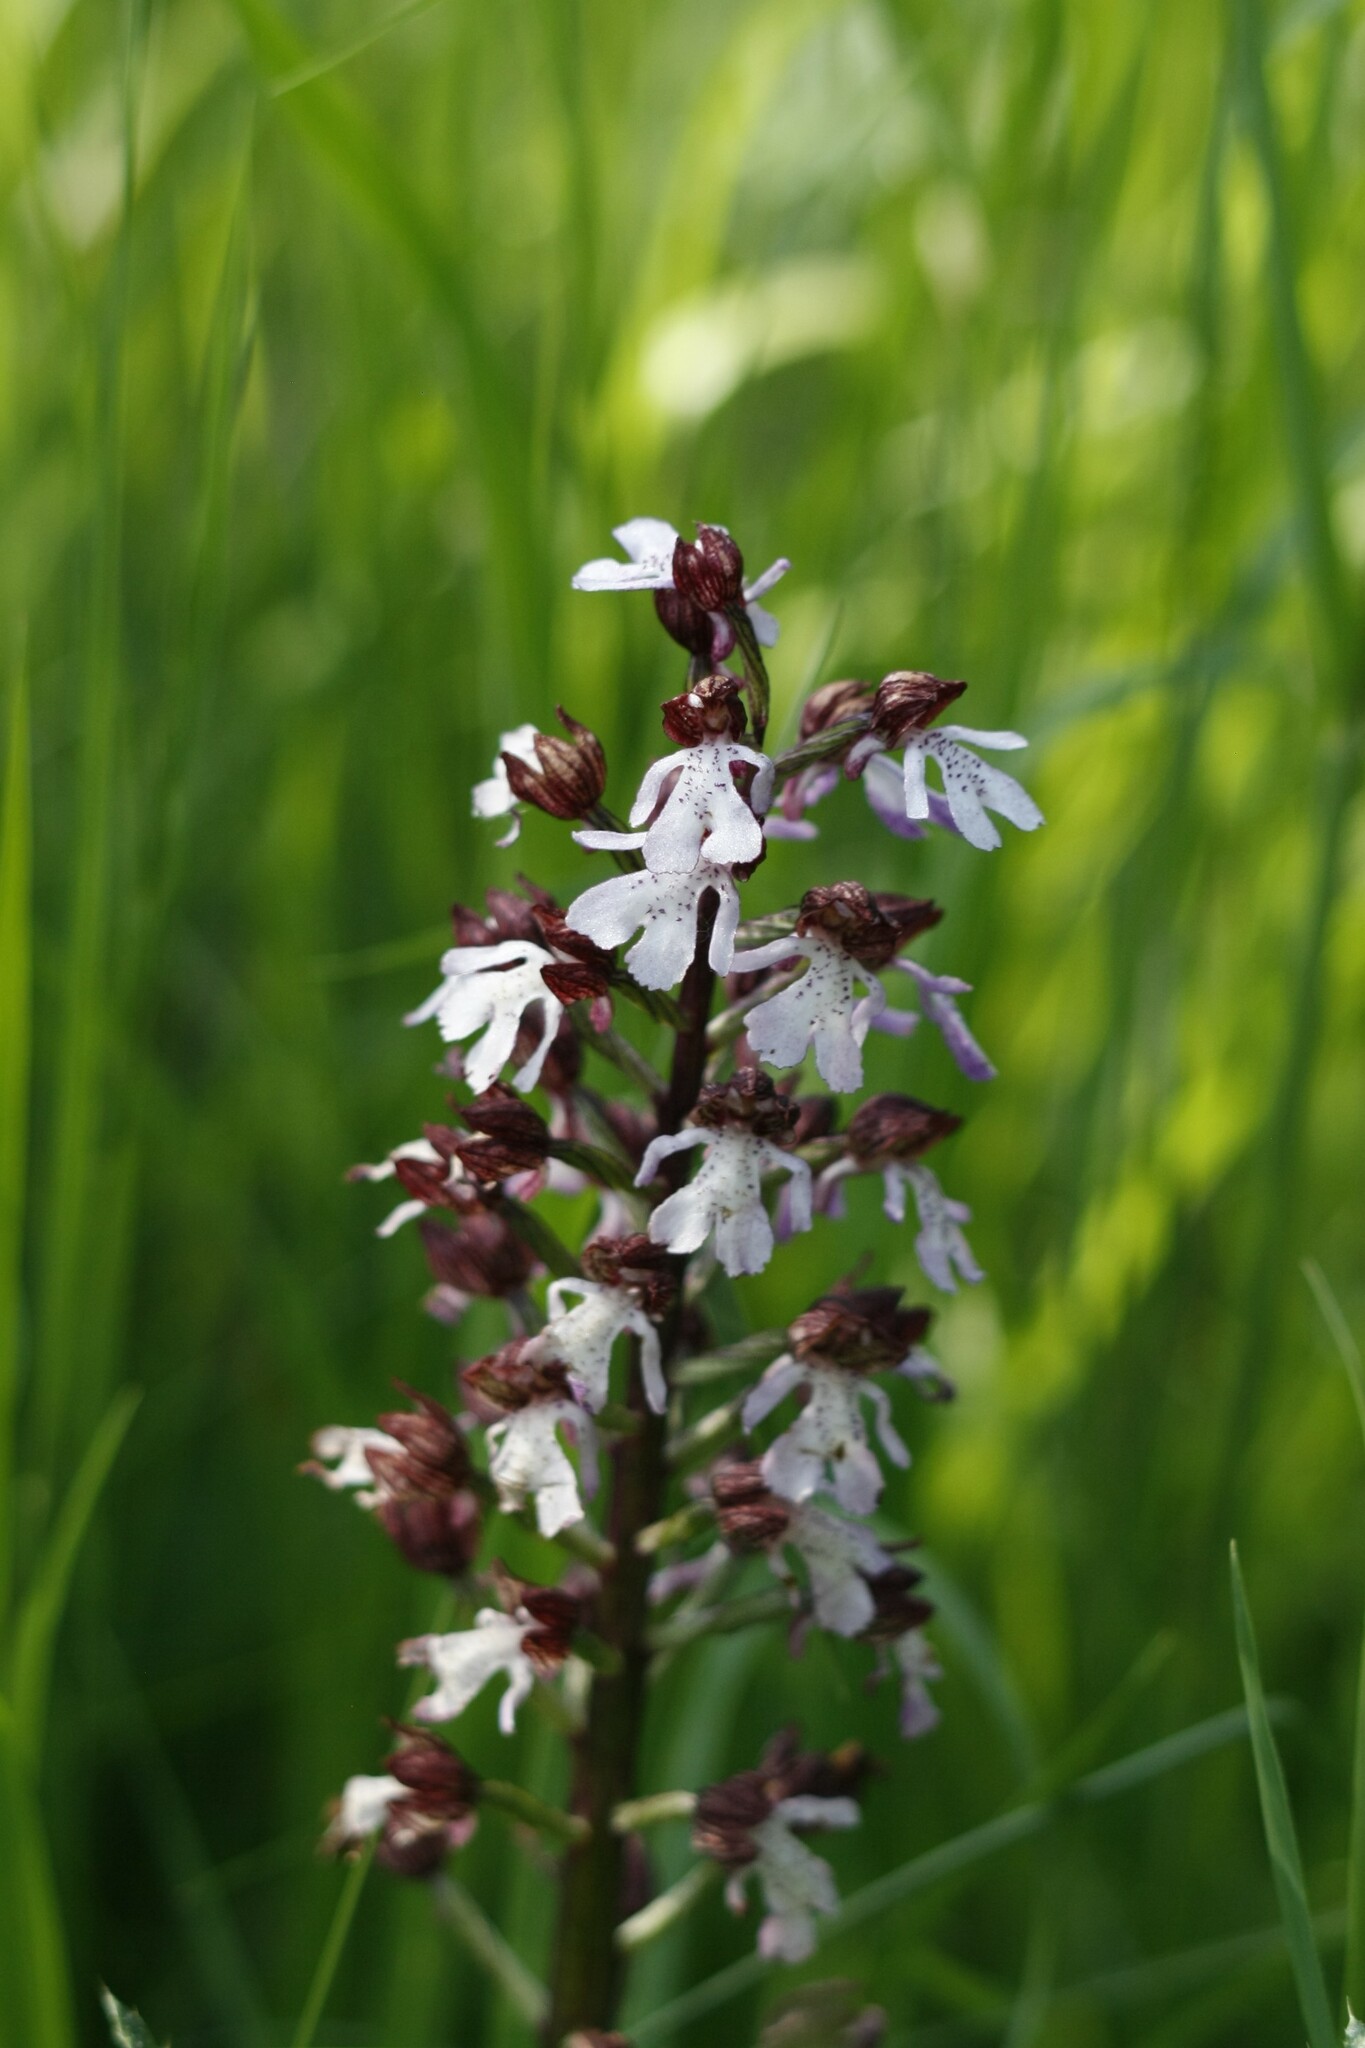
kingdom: Plantae
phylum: Tracheophyta
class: Liliopsida
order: Asparagales
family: Orchidaceae
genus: Orchis
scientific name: Orchis purpurea
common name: Lady orchid
